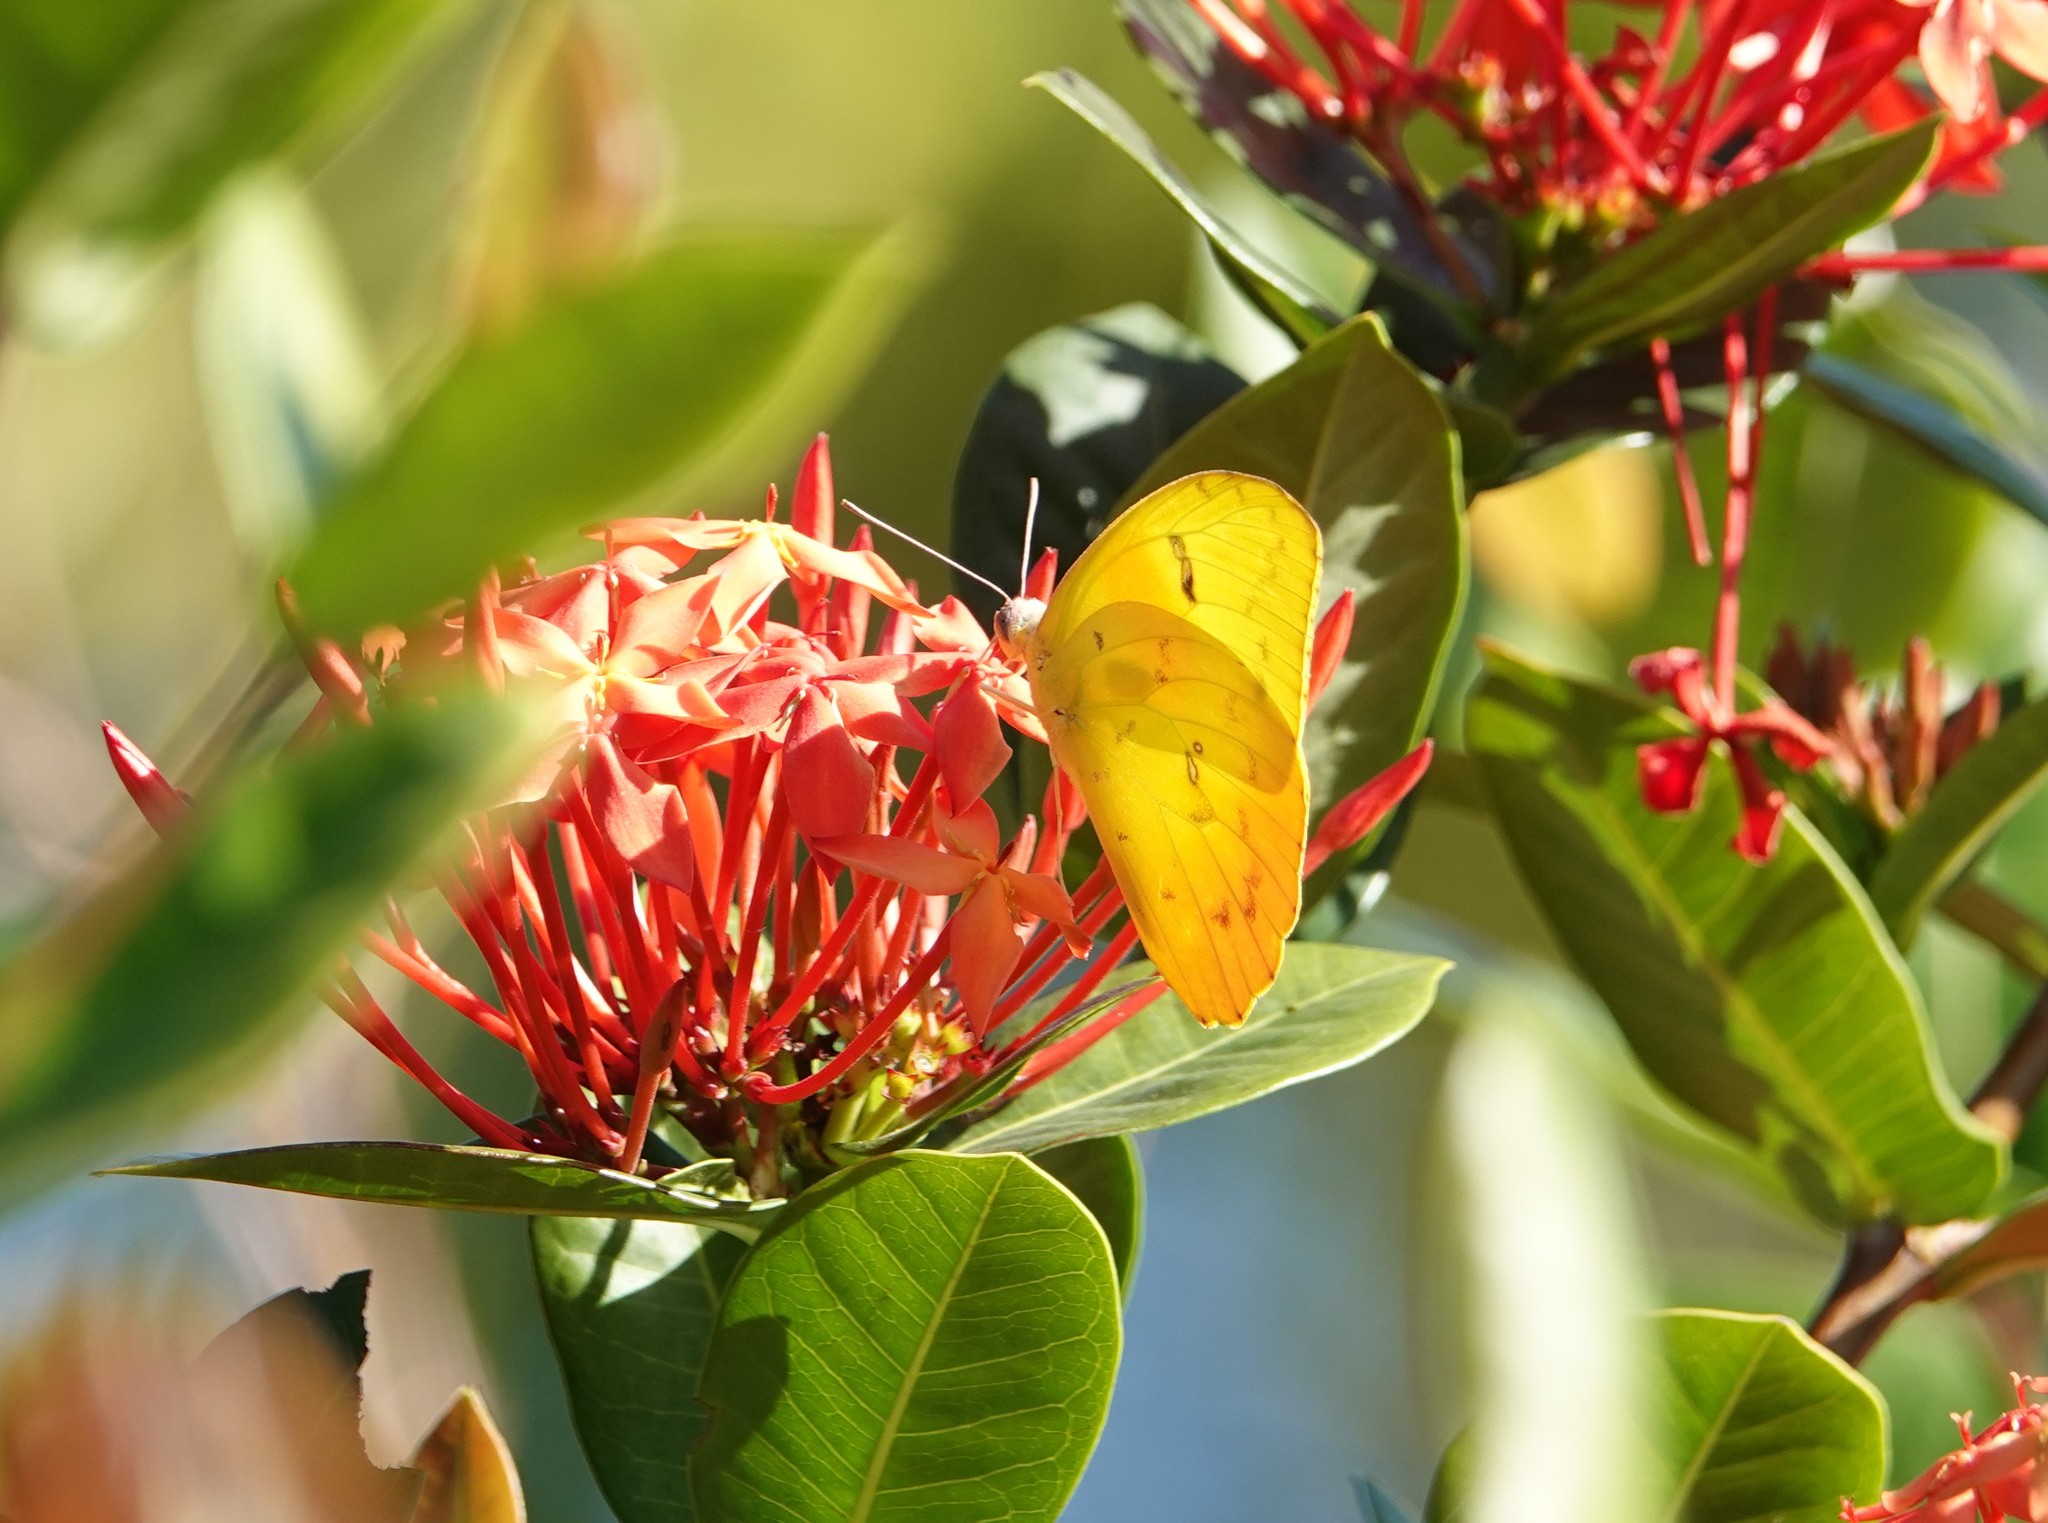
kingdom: Animalia
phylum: Arthropoda
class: Insecta
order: Lepidoptera
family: Pieridae
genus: Phoebis
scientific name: Phoebis philea
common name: Orange-barred giant sulphur
